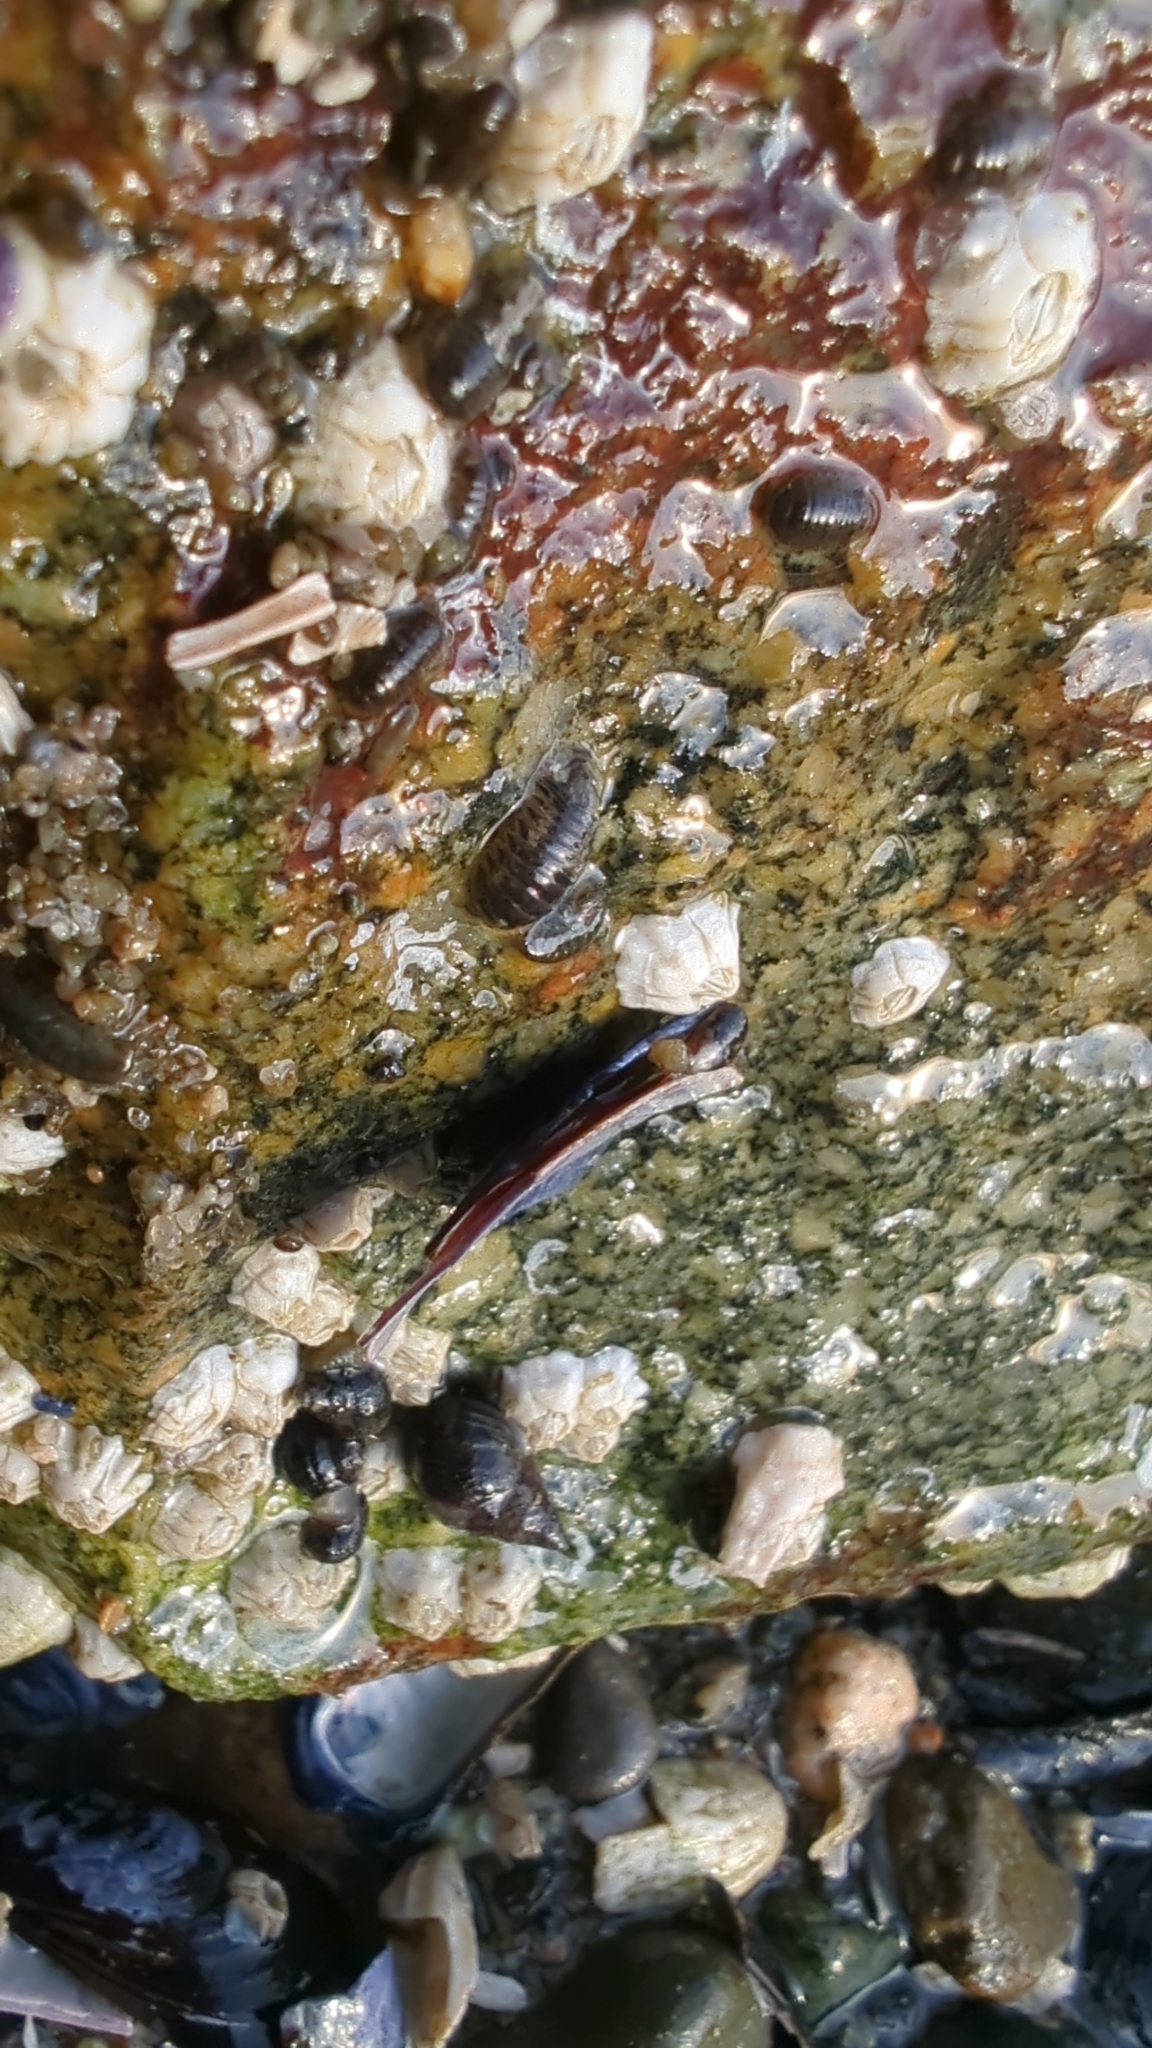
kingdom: Animalia
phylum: Arthropoda
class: Malacostraca
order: Isopoda
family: Sphaeromatidae
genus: Gnorimosphaeroma
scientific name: Gnorimosphaeroma oregonense
